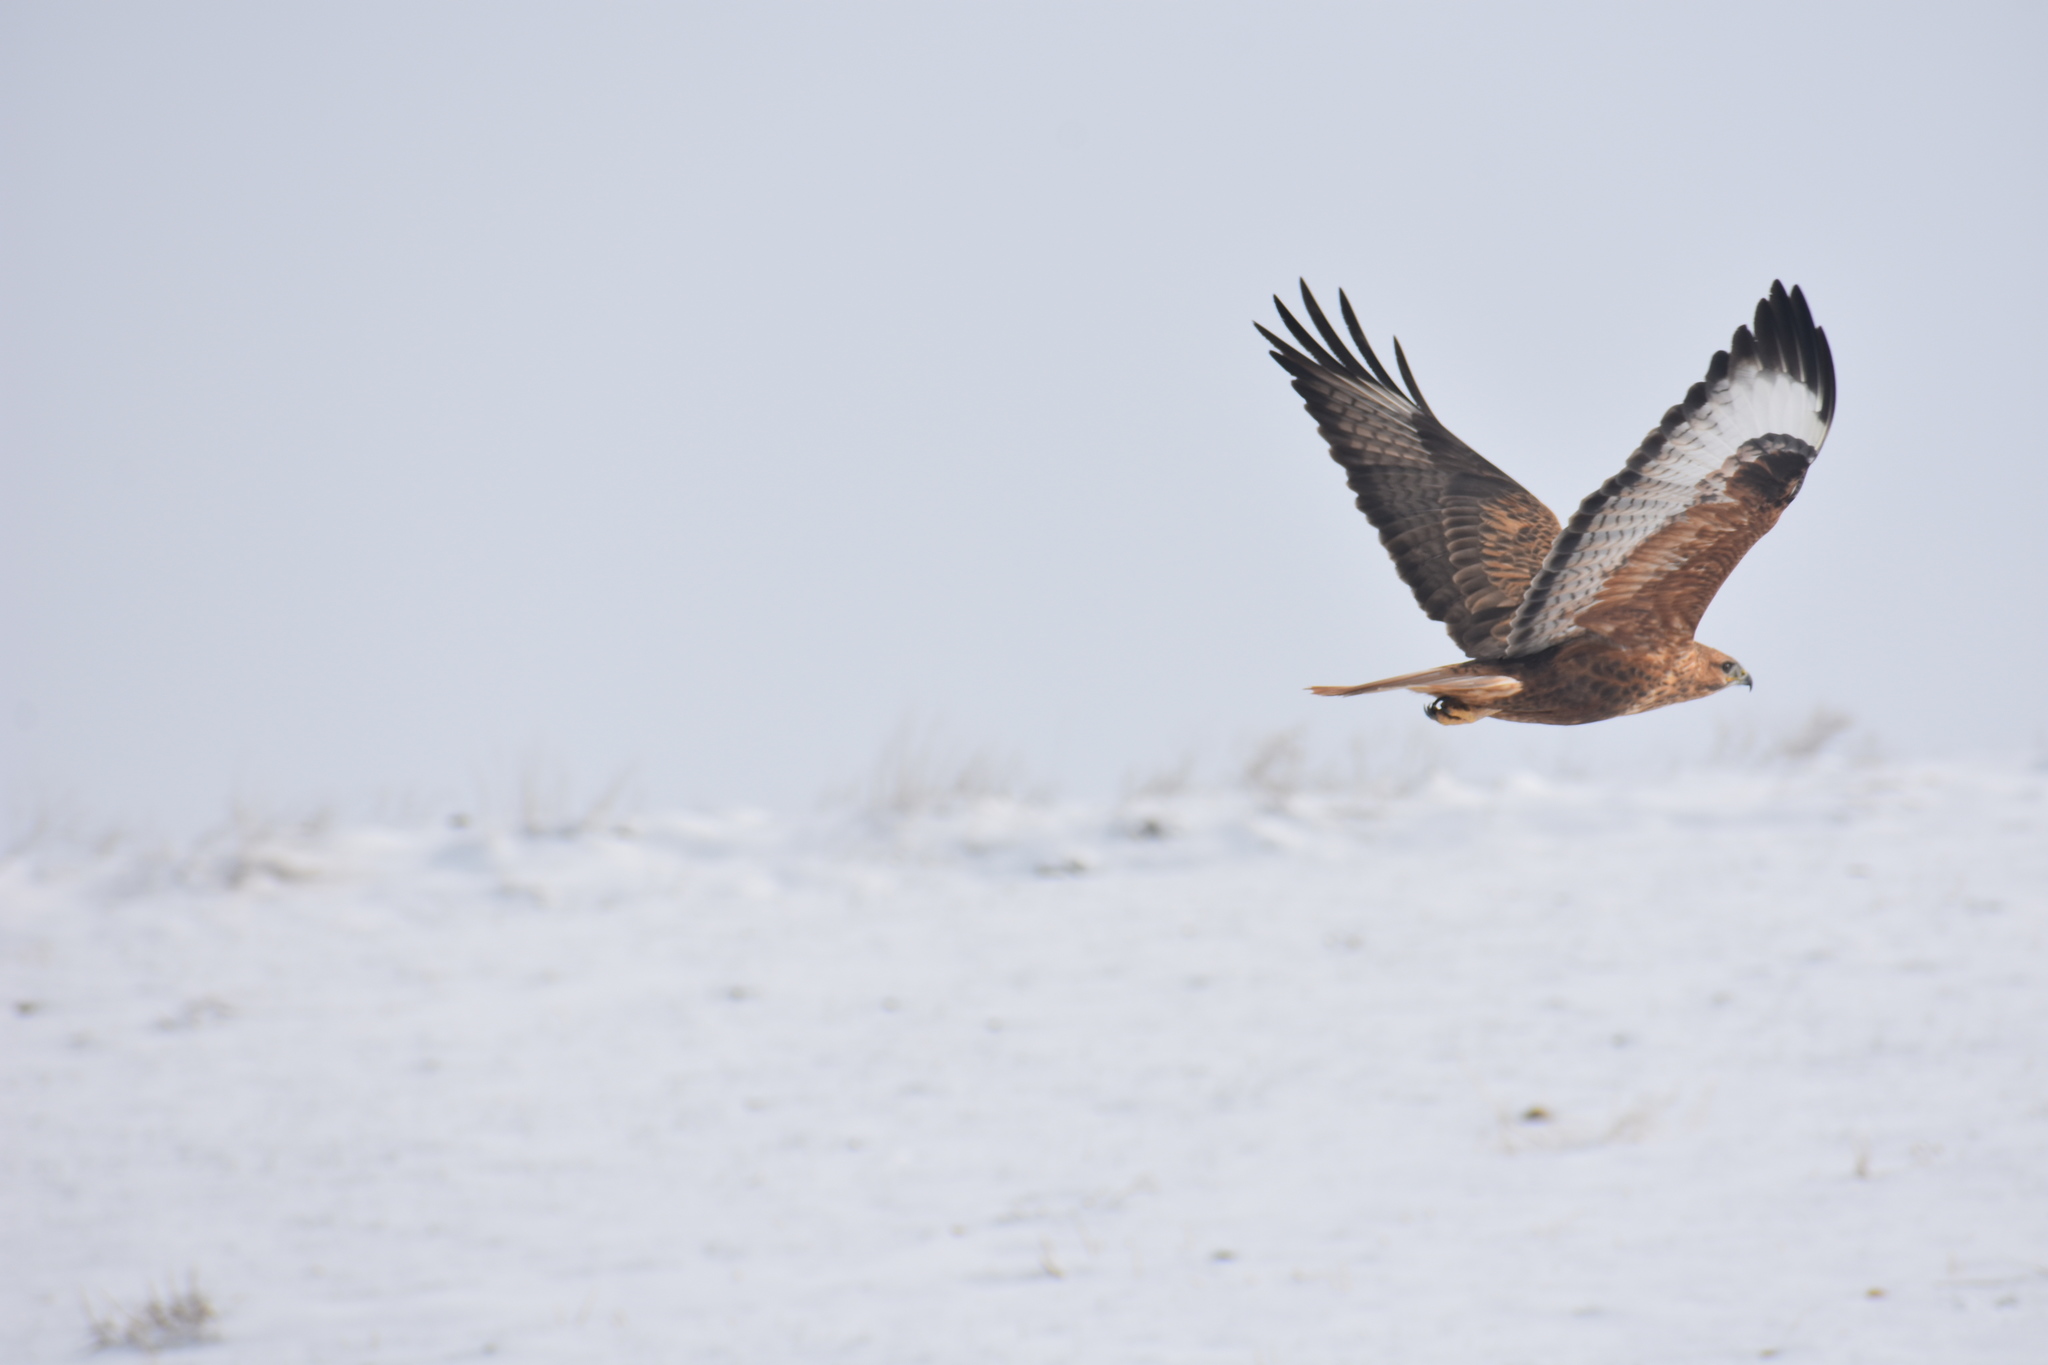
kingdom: Animalia
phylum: Chordata
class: Aves
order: Accipitriformes
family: Accipitridae
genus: Buteo
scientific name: Buteo rufinus
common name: Long-legged buzzard
